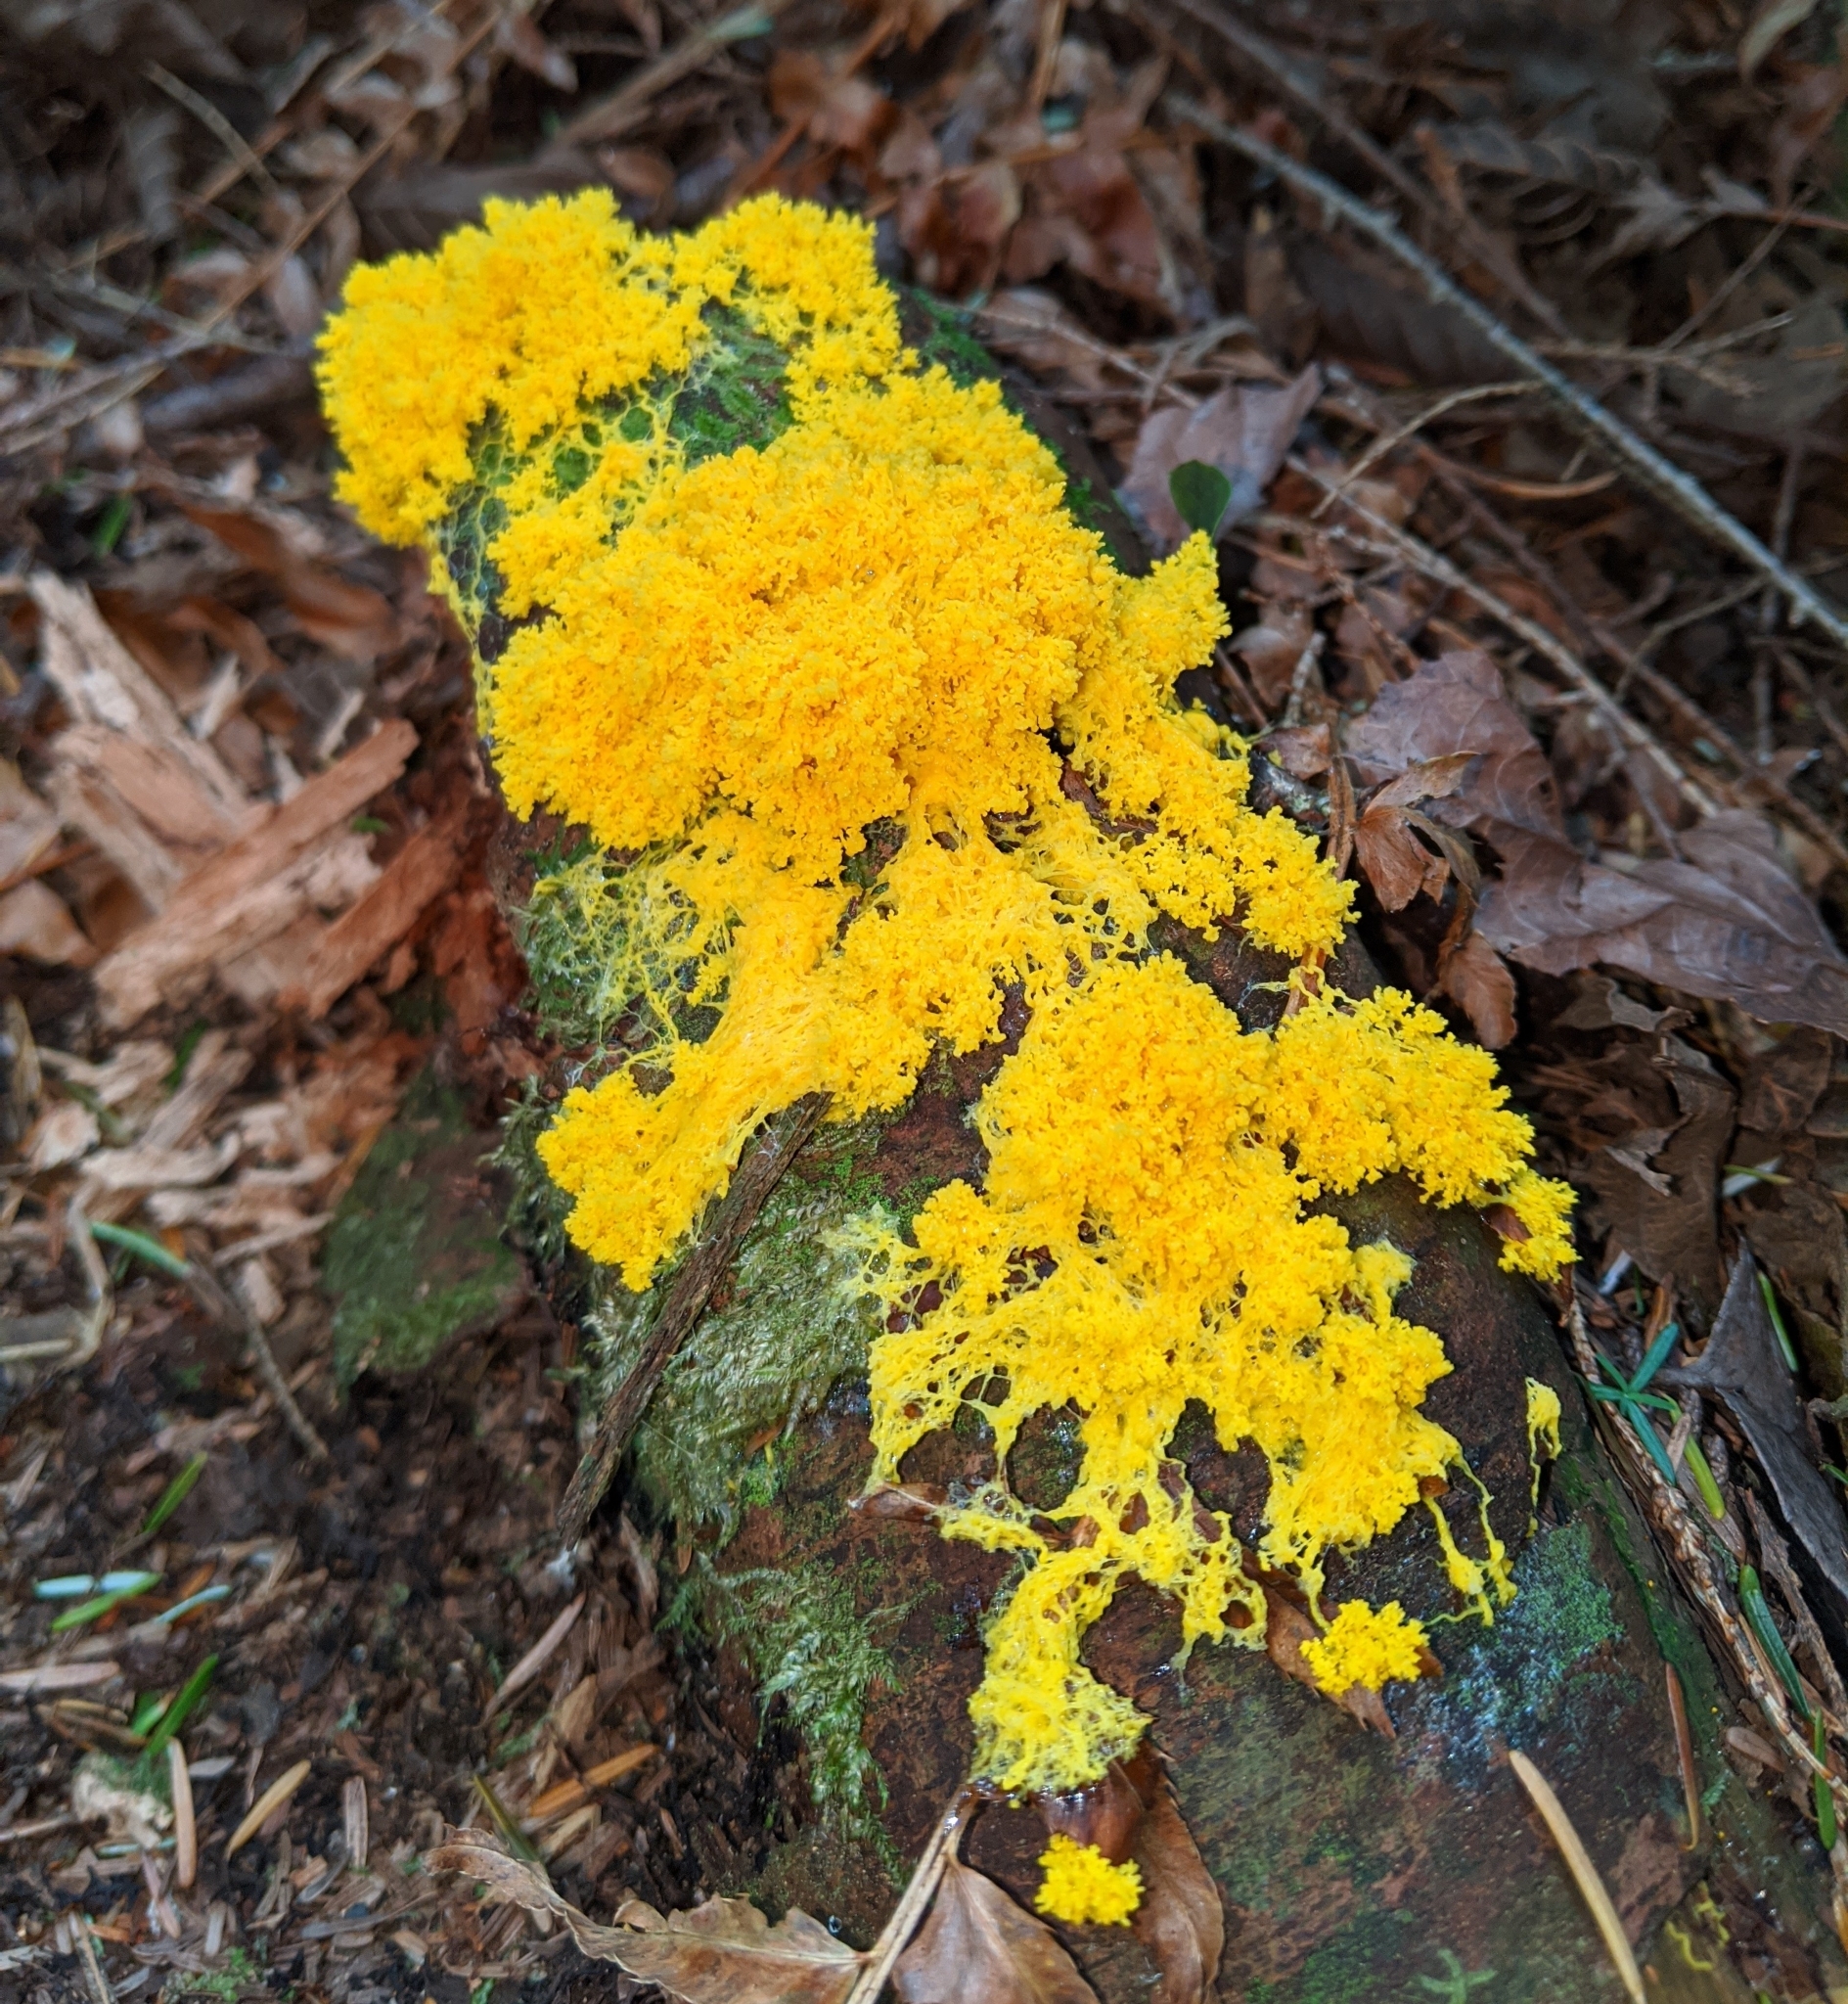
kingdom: Protozoa
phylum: Mycetozoa
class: Myxomycetes
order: Physarales
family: Physaraceae
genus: Fuligo
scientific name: Fuligo septica
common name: Dog vomit slime mold
